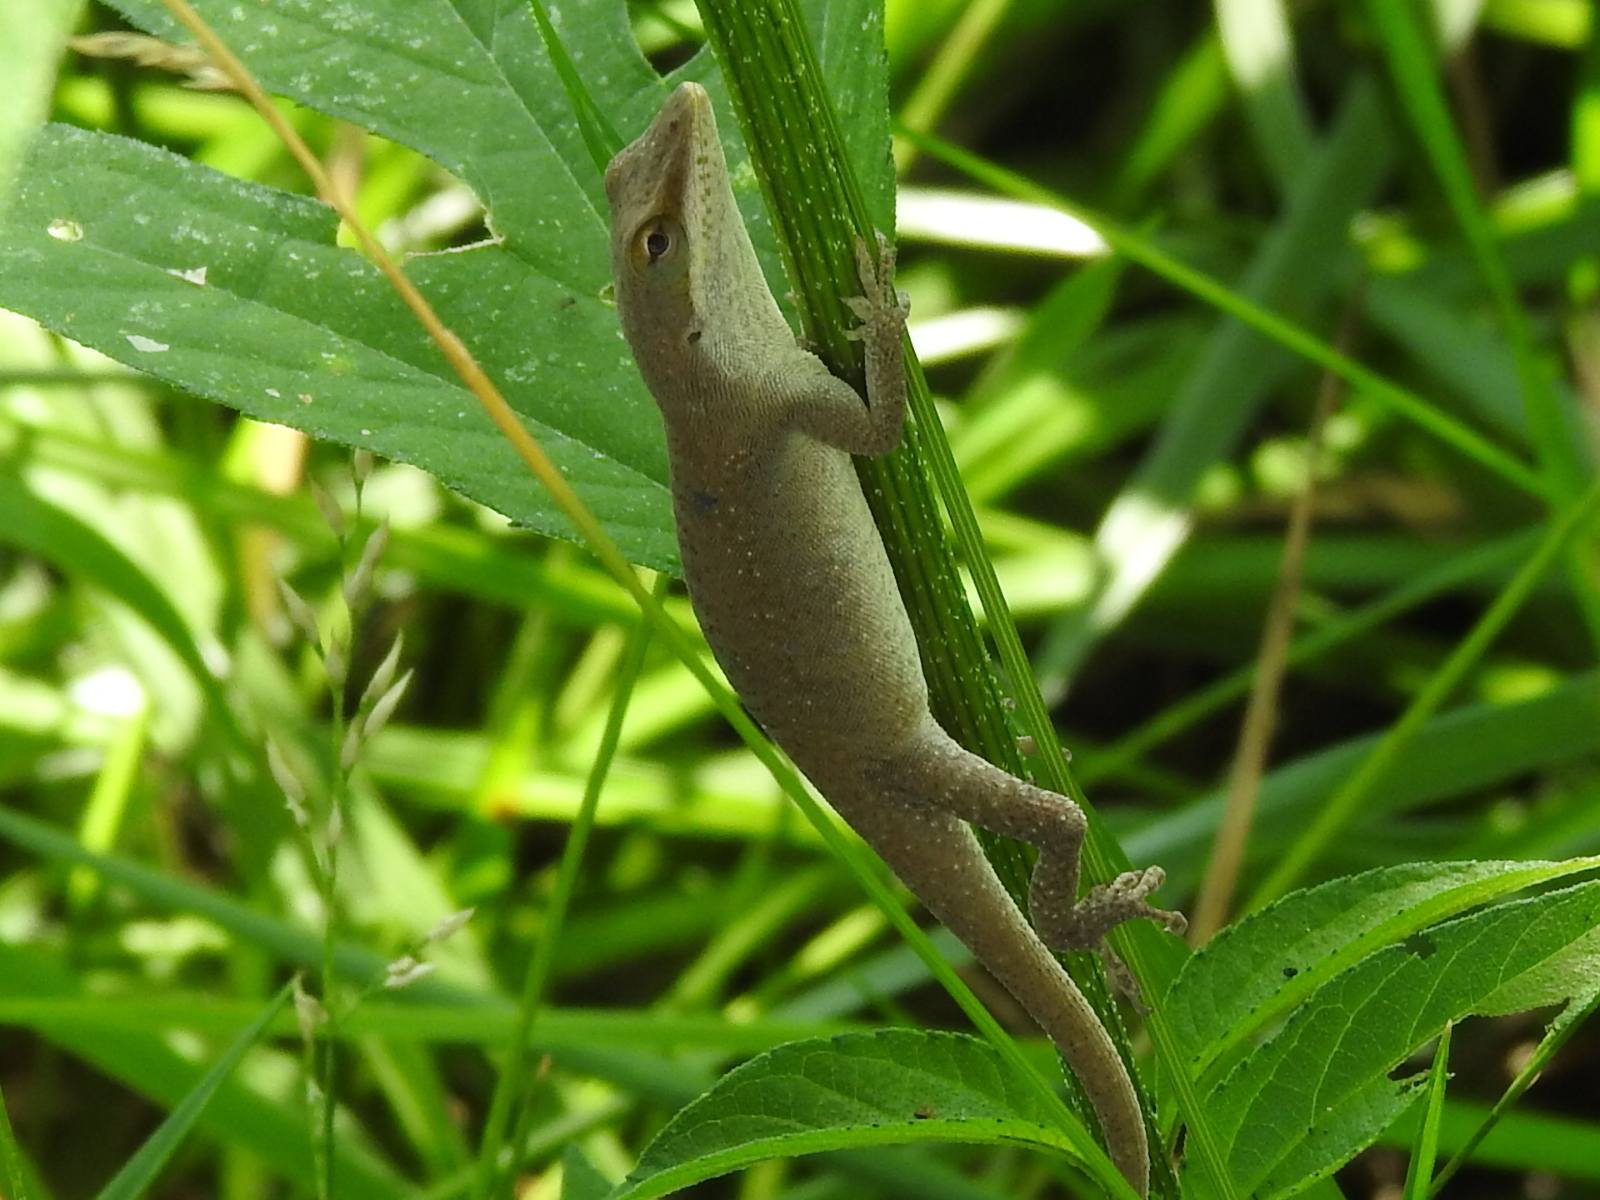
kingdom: Animalia
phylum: Chordata
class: Squamata
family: Dactyloidae
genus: Anolis
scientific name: Anolis carolinensis
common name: Green anole
